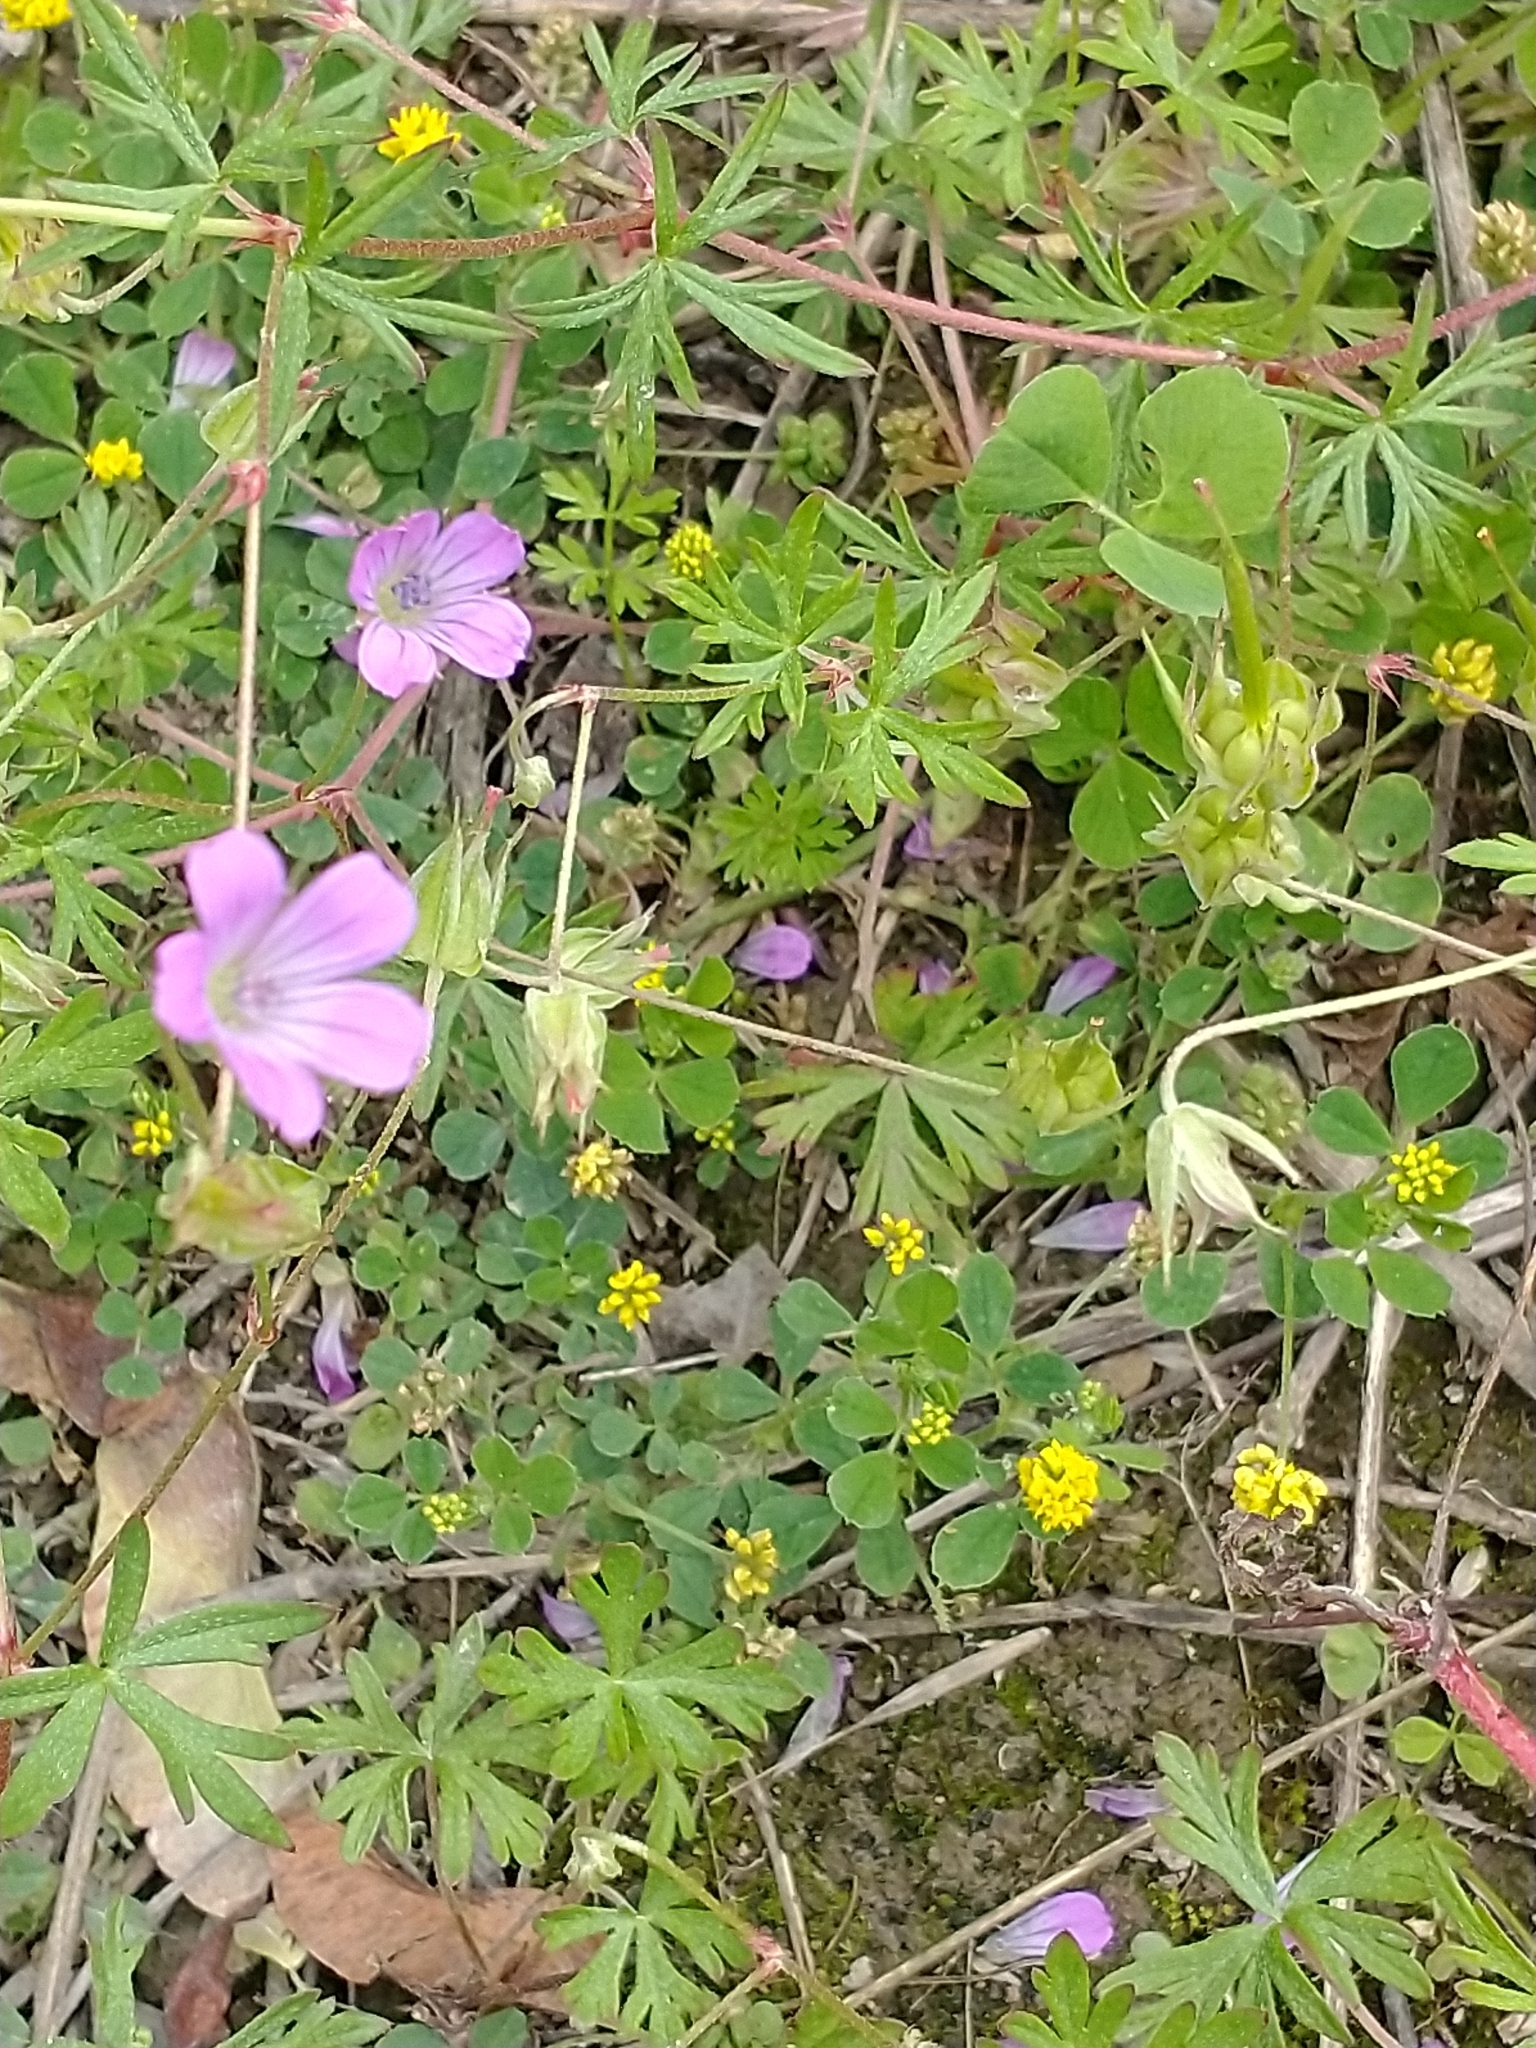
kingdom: Plantae
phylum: Tracheophyta
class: Magnoliopsida
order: Geraniales
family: Geraniaceae
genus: Geranium
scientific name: Geranium columbinum
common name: Long-stalked crane's-bill
